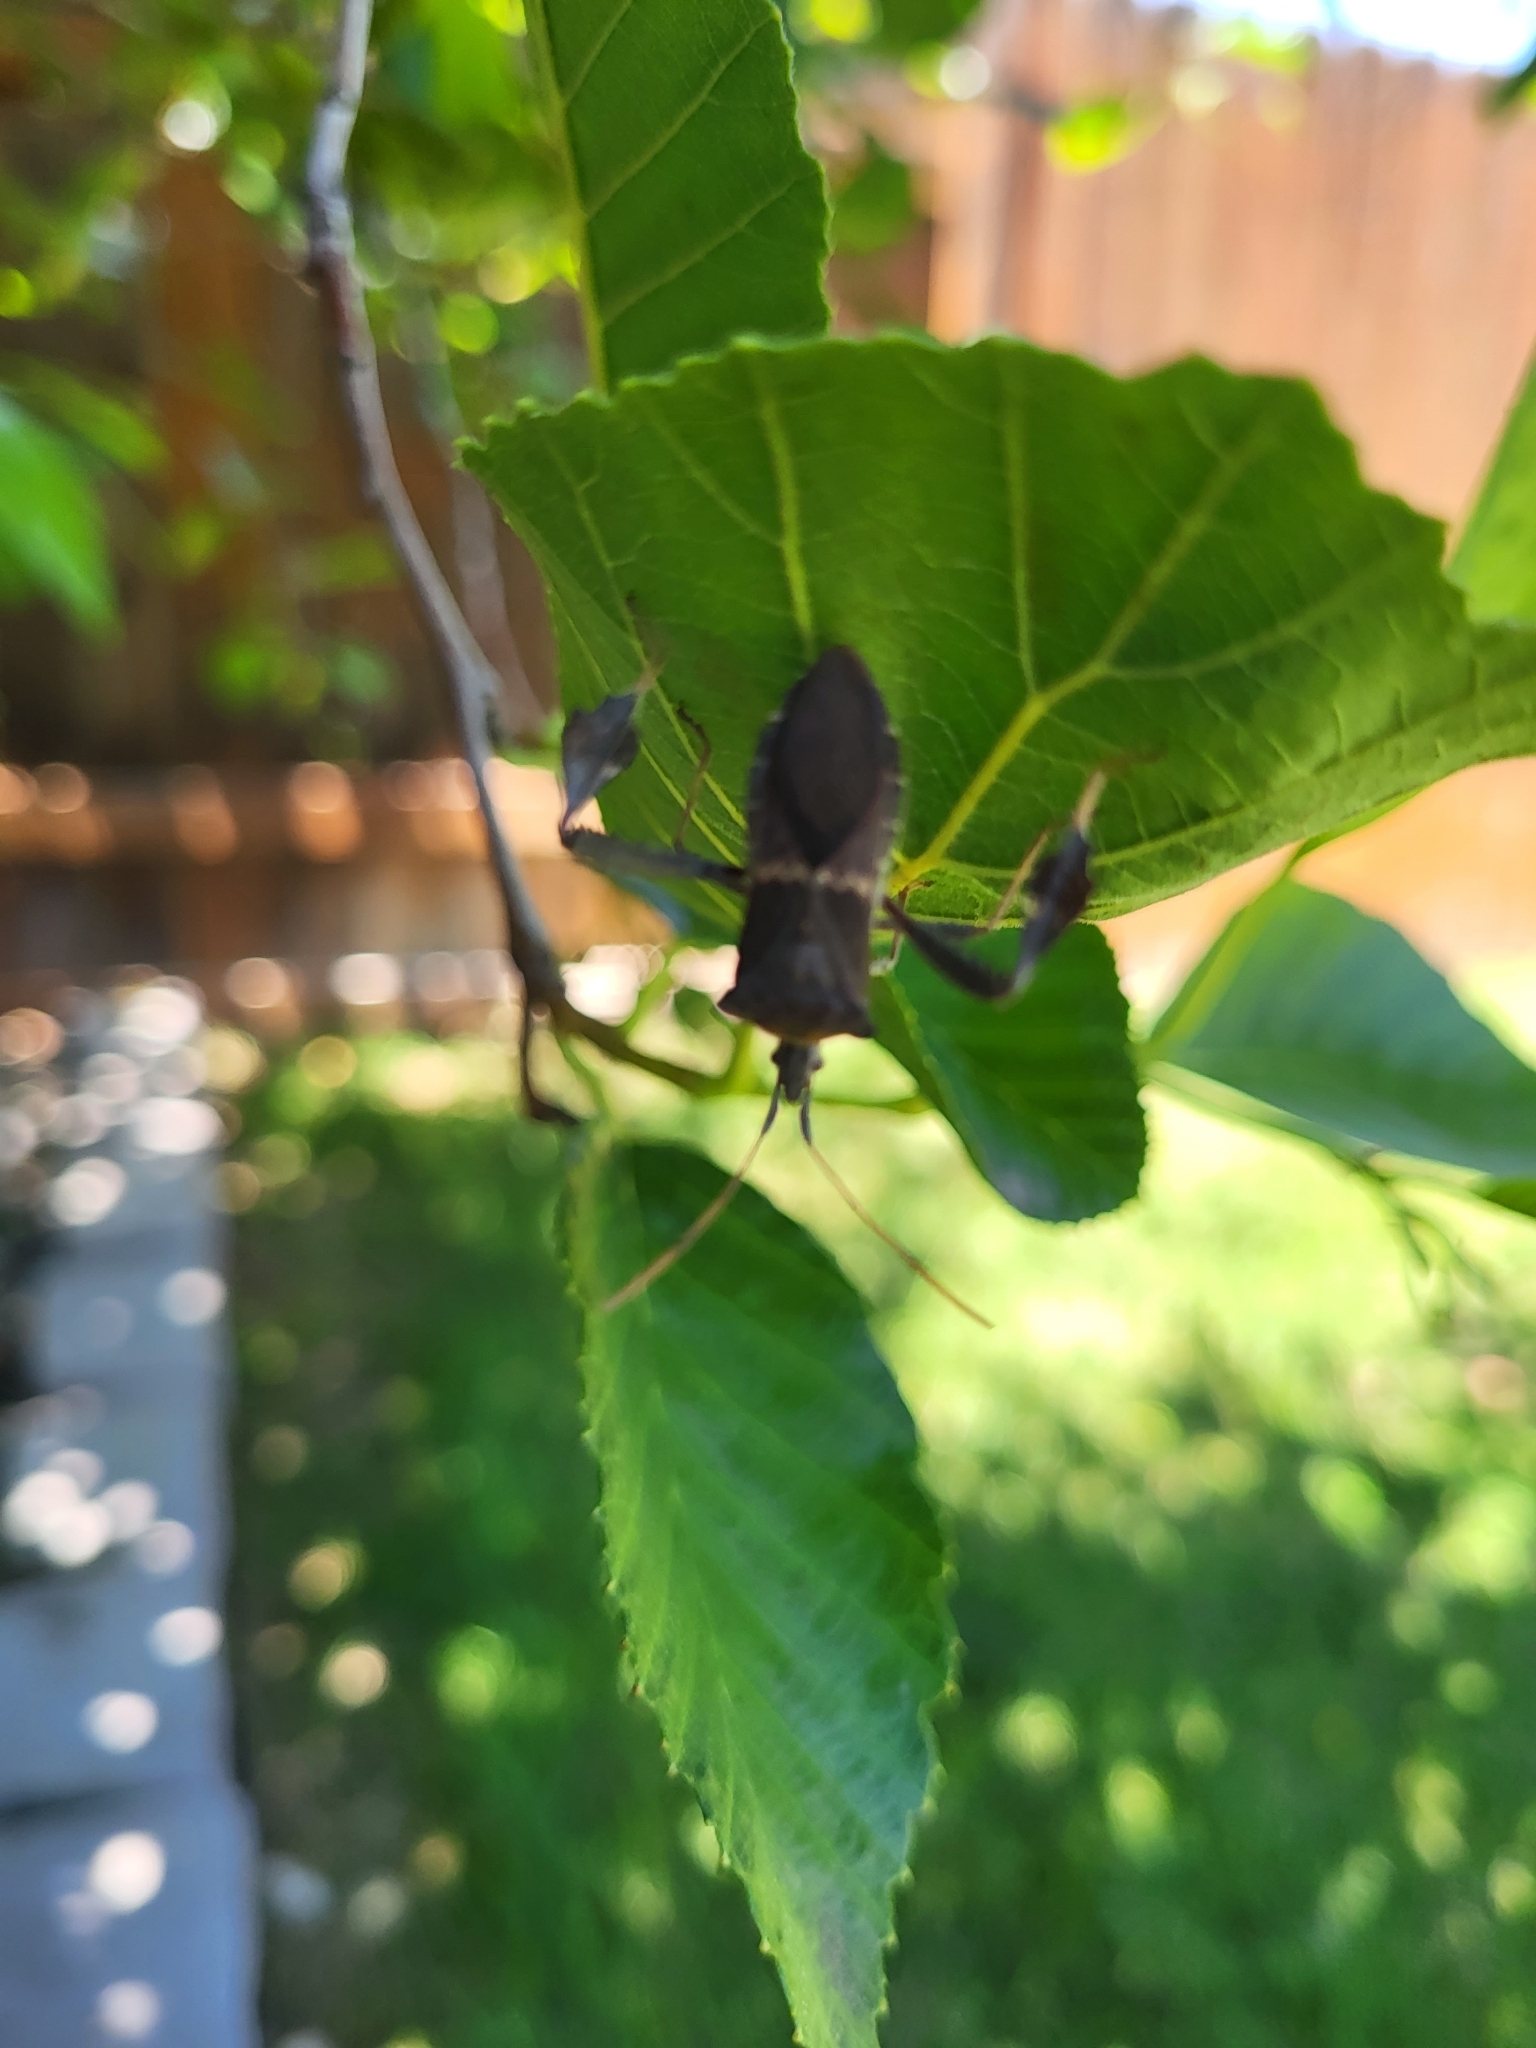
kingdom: Animalia
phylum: Arthropoda
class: Insecta
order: Hemiptera
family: Coreidae
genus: Leptoglossus
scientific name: Leptoglossus zonatus
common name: Large-legged bug
